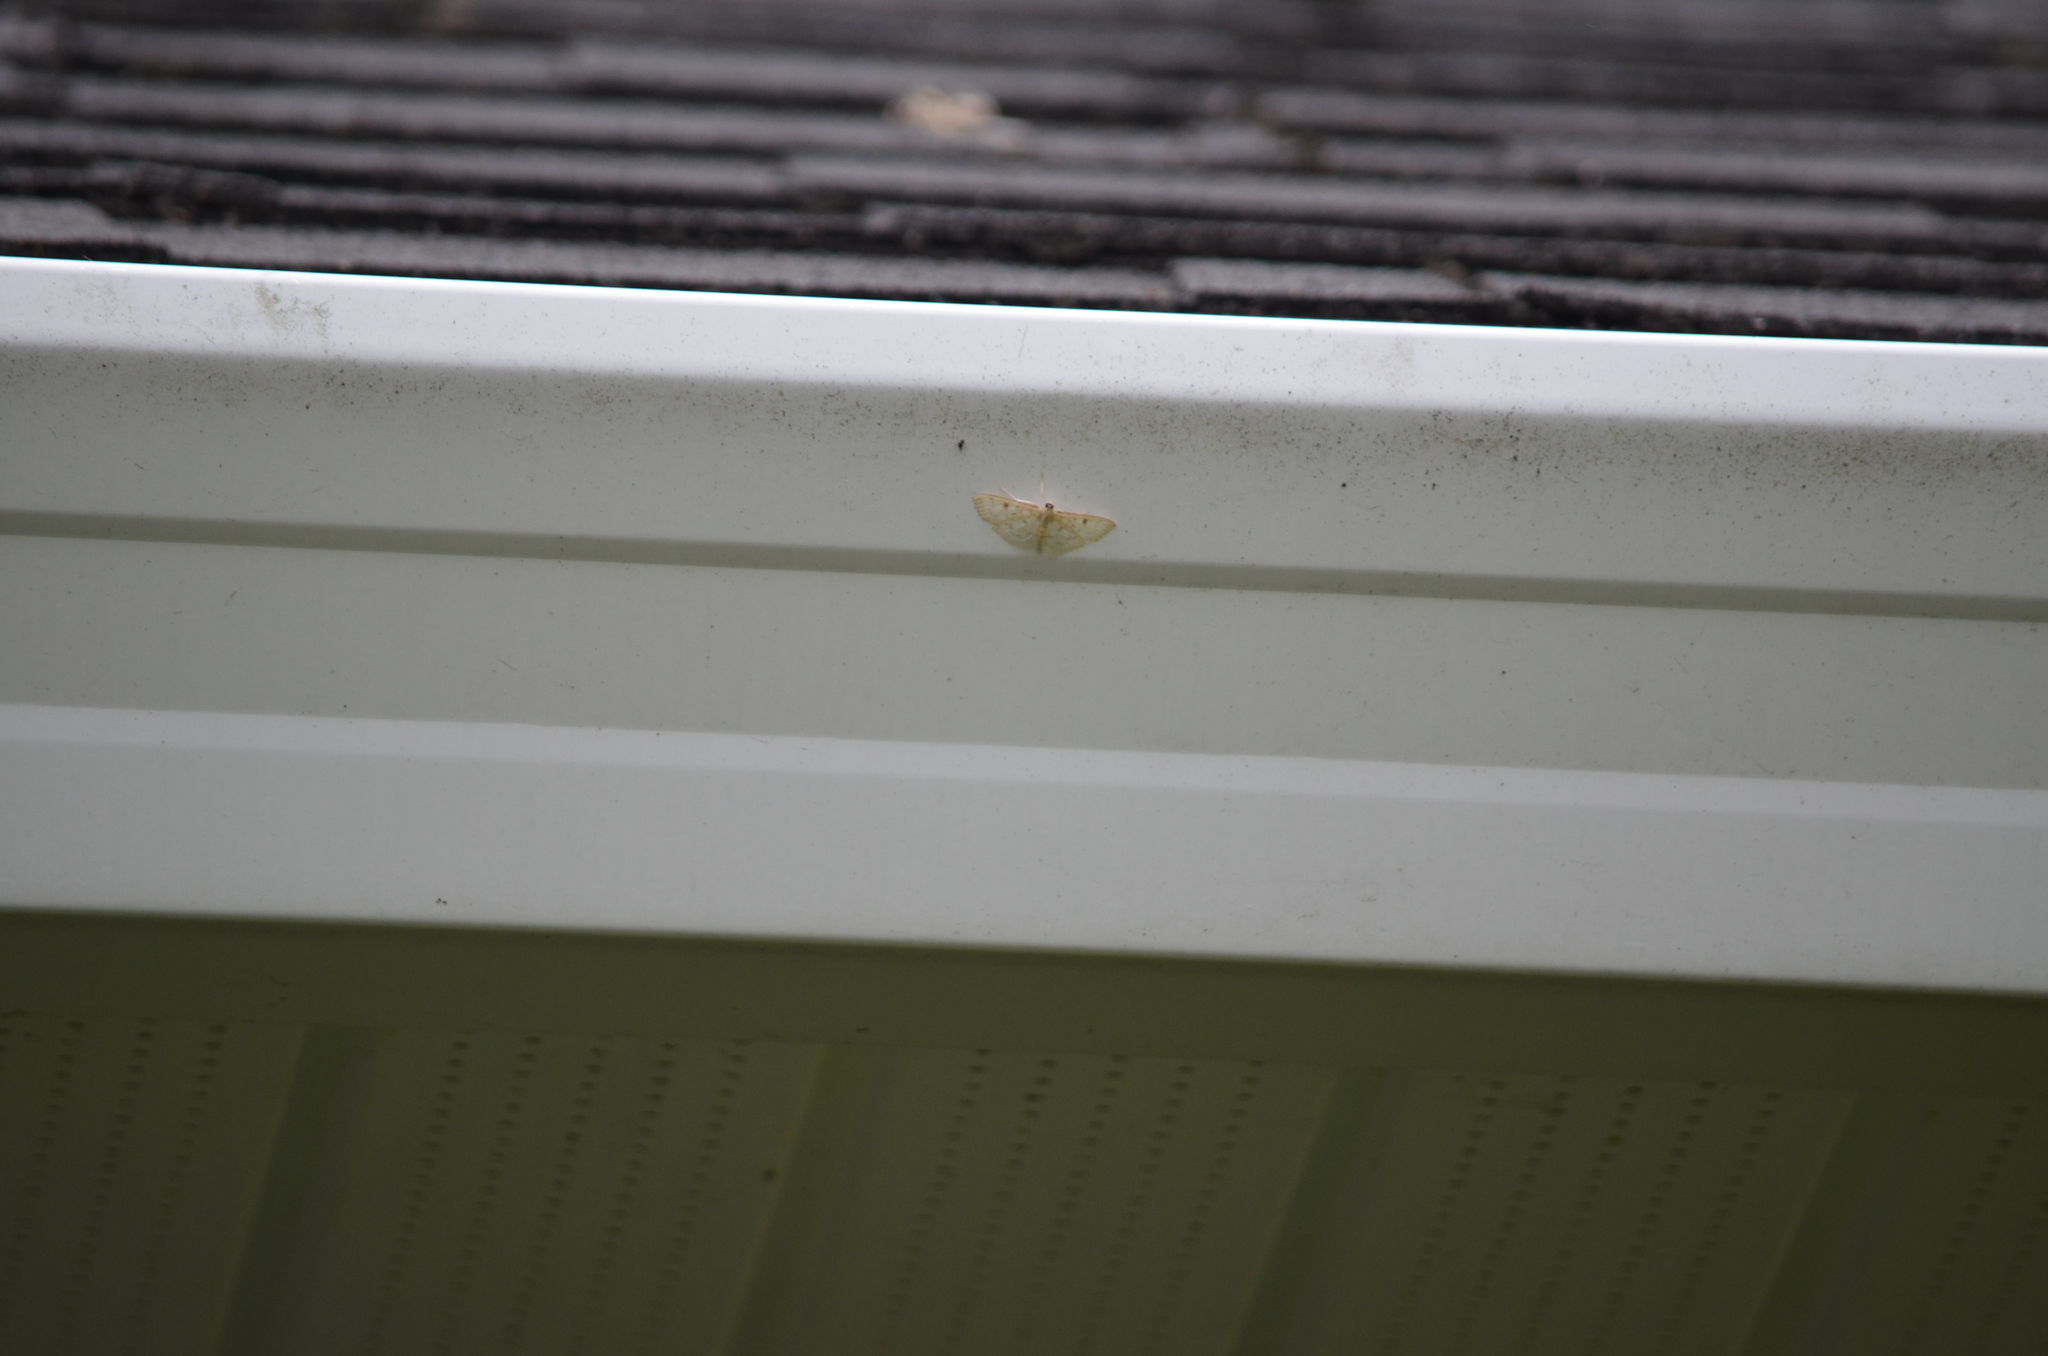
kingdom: Animalia
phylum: Arthropoda
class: Insecta
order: Lepidoptera
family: Crambidae
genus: Herpetogramma
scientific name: Herpetogramma aquilonalis
